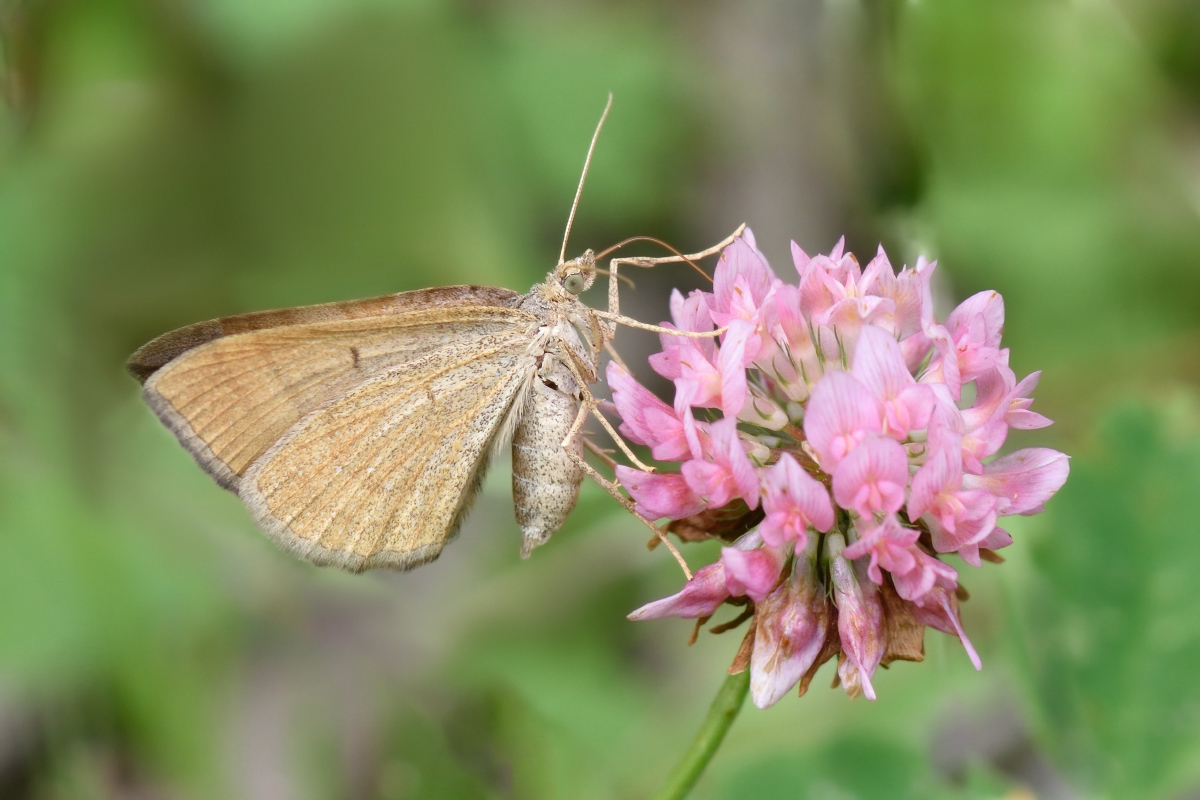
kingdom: Animalia
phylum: Arthropoda
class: Insecta
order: Lepidoptera
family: Geometridae
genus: Scotopteryx
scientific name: Scotopteryx chenopodiata
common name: Shaded broad-bar
